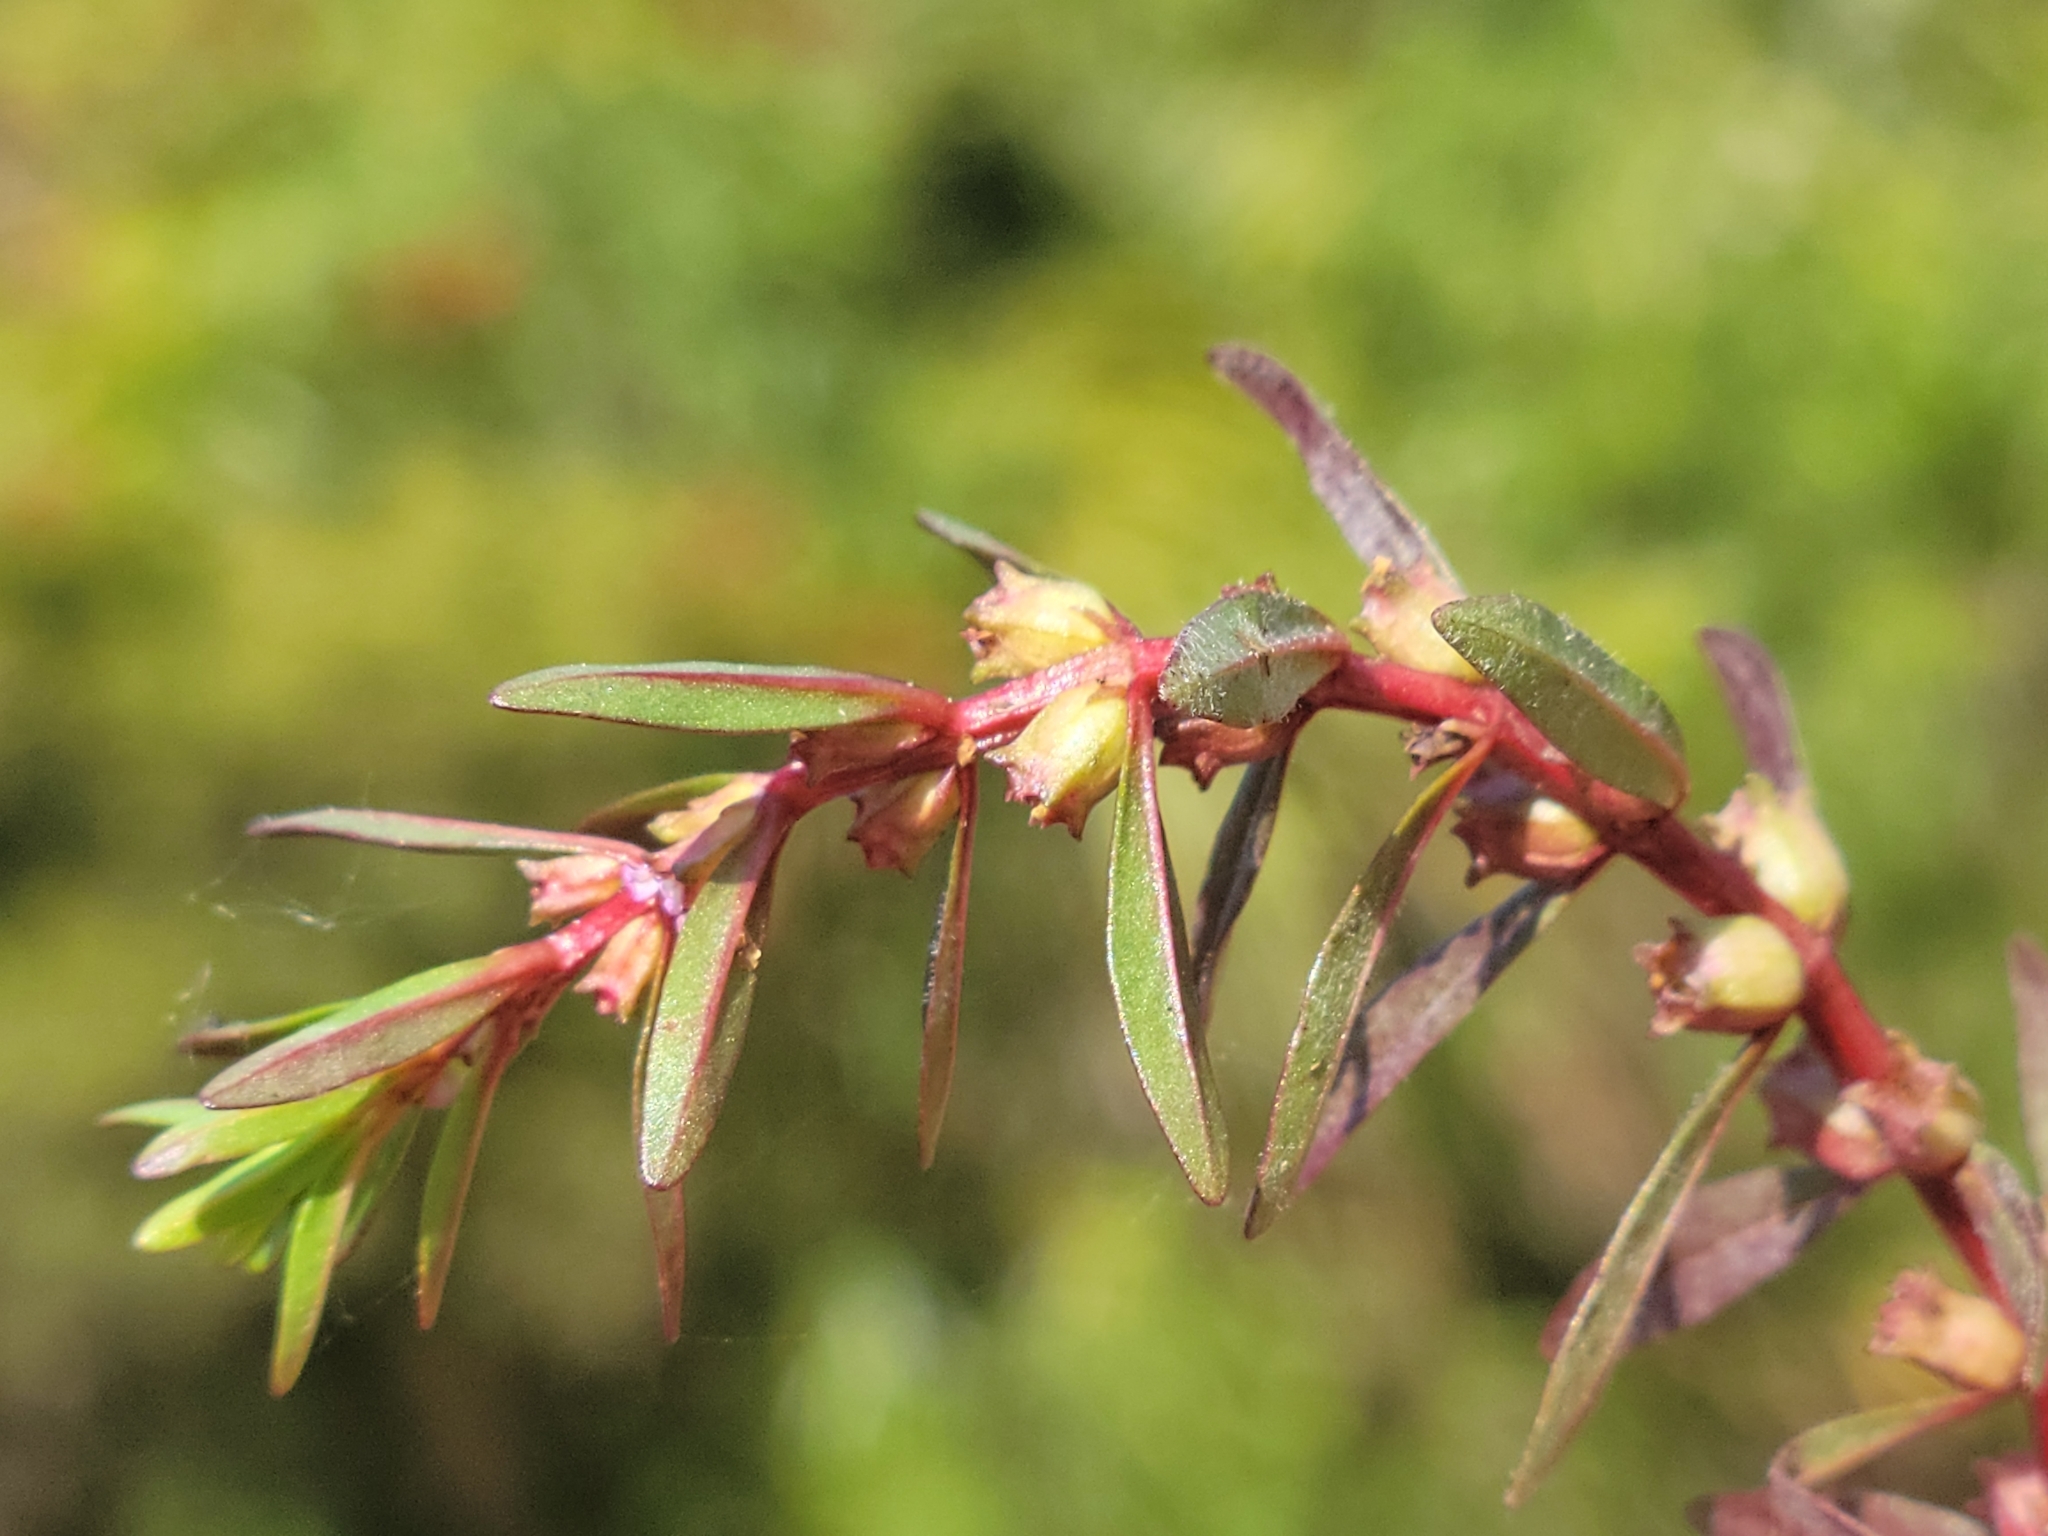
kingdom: Plantae
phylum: Tracheophyta
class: Magnoliopsida
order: Myrtales
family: Lythraceae
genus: Rotala
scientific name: Rotala ramosior
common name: Lowland rotala
